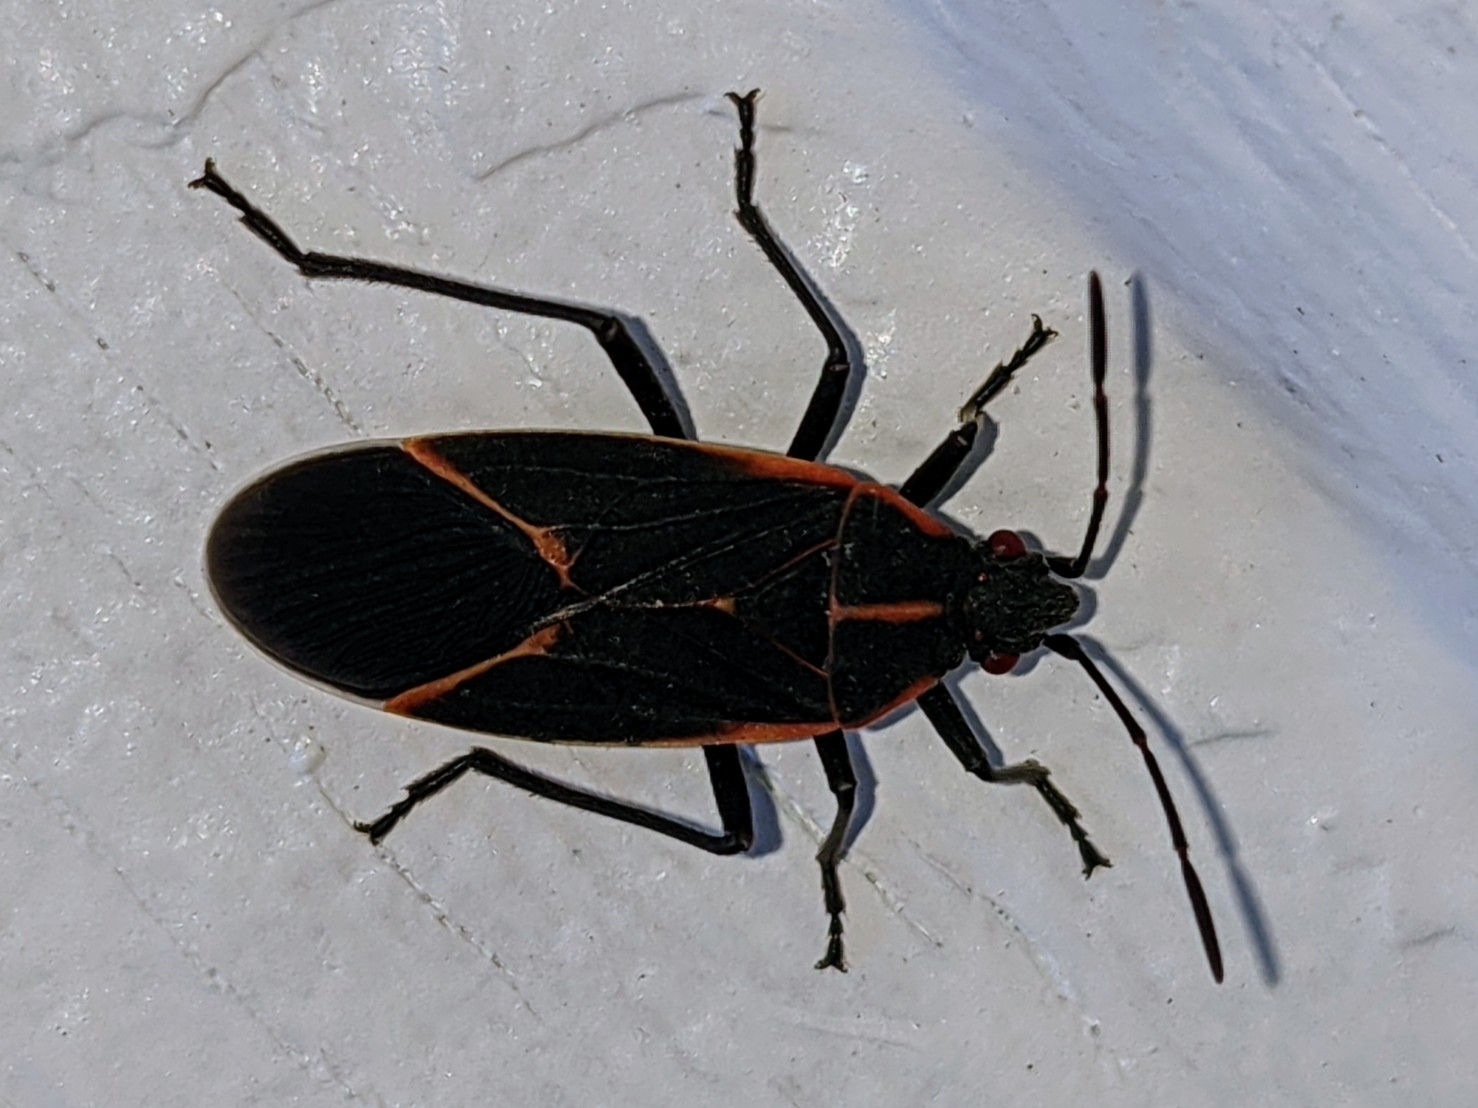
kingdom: Animalia
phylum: Arthropoda
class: Insecta
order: Hemiptera
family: Rhopalidae
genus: Boisea
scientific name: Boisea trivittata
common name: Boxelder bug
